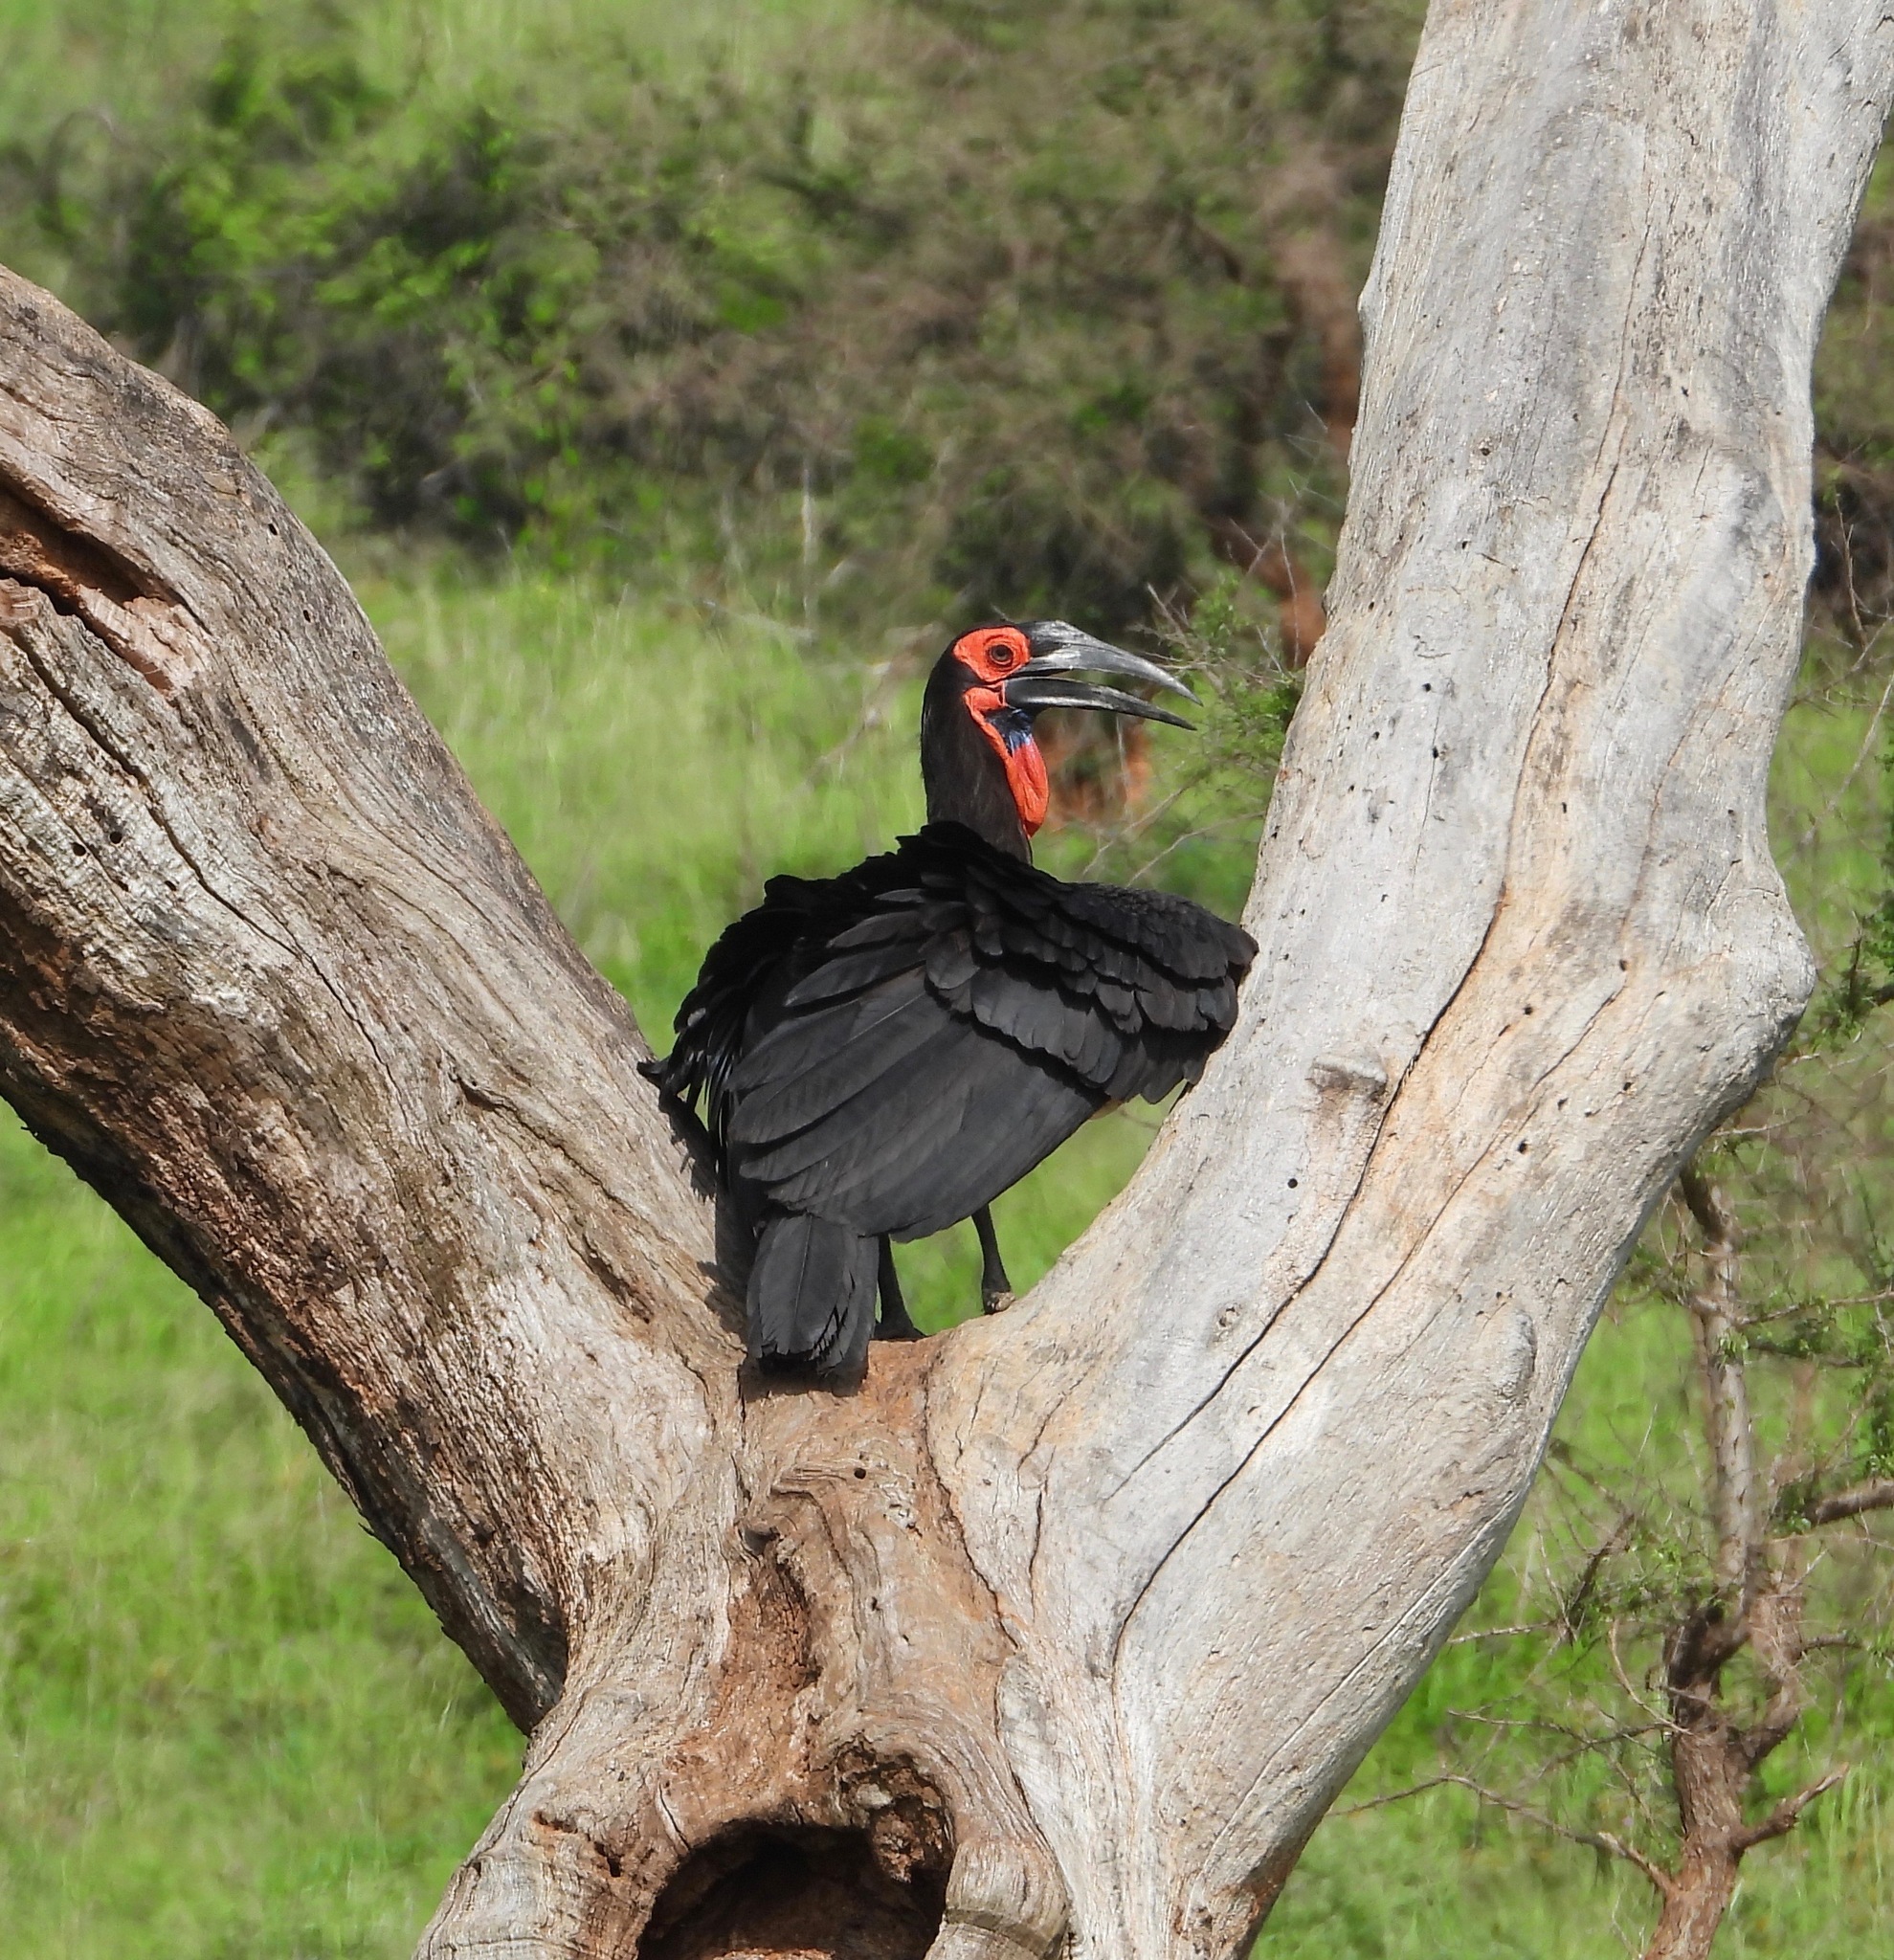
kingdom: Animalia
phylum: Chordata
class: Aves
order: Bucerotiformes
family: Bucorvidae
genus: Bucorvus
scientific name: Bucorvus leadbeateri
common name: Southern ground-hornbill
